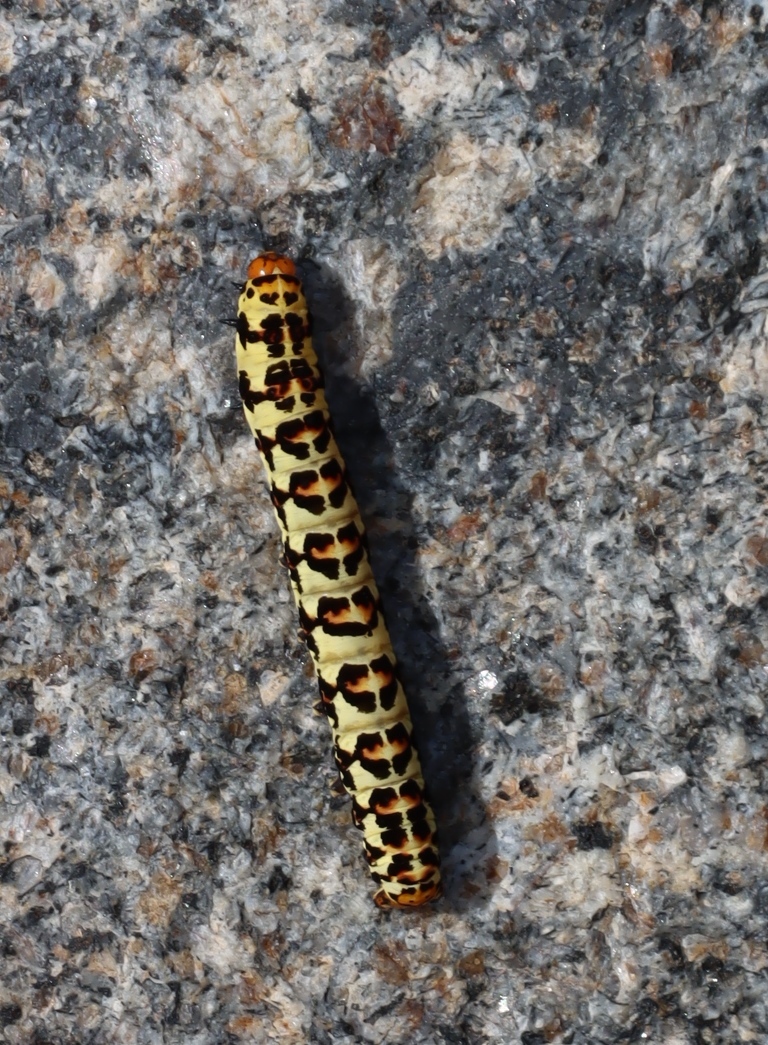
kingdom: Animalia
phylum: Arthropoda
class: Insecta
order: Lepidoptera
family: Noctuidae
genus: Diaphone
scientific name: Diaphone eumela
